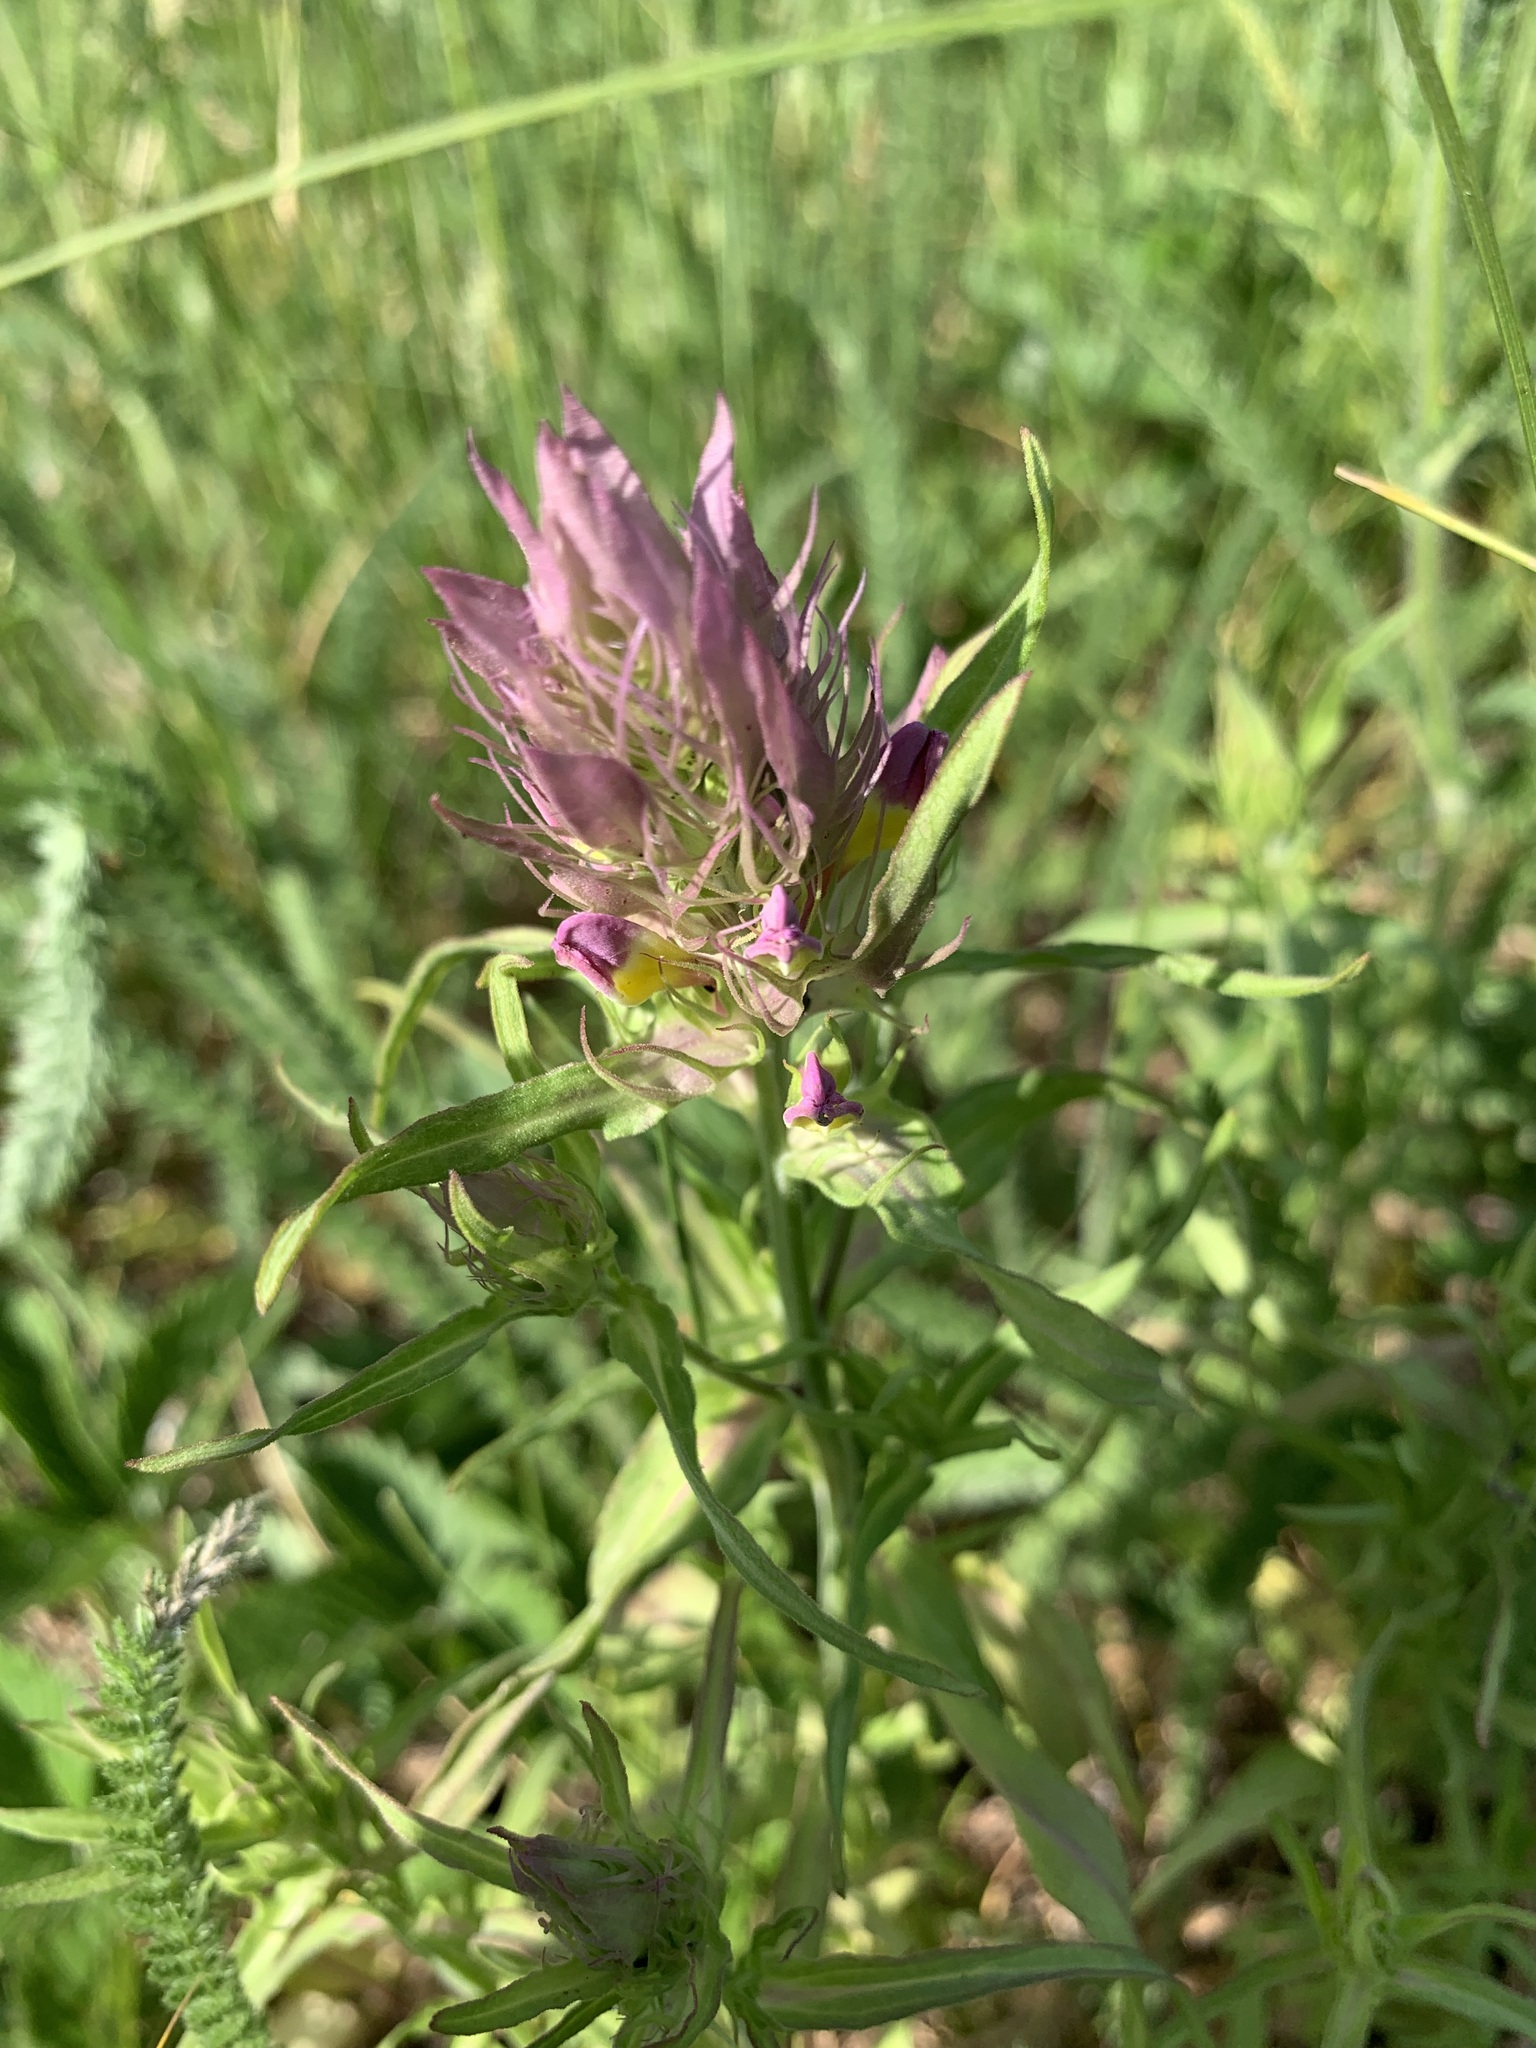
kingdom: Plantae
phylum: Tracheophyta
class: Magnoliopsida
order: Lamiales
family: Orobanchaceae
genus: Melampyrum
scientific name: Melampyrum arvense
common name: Field cow-wheat
